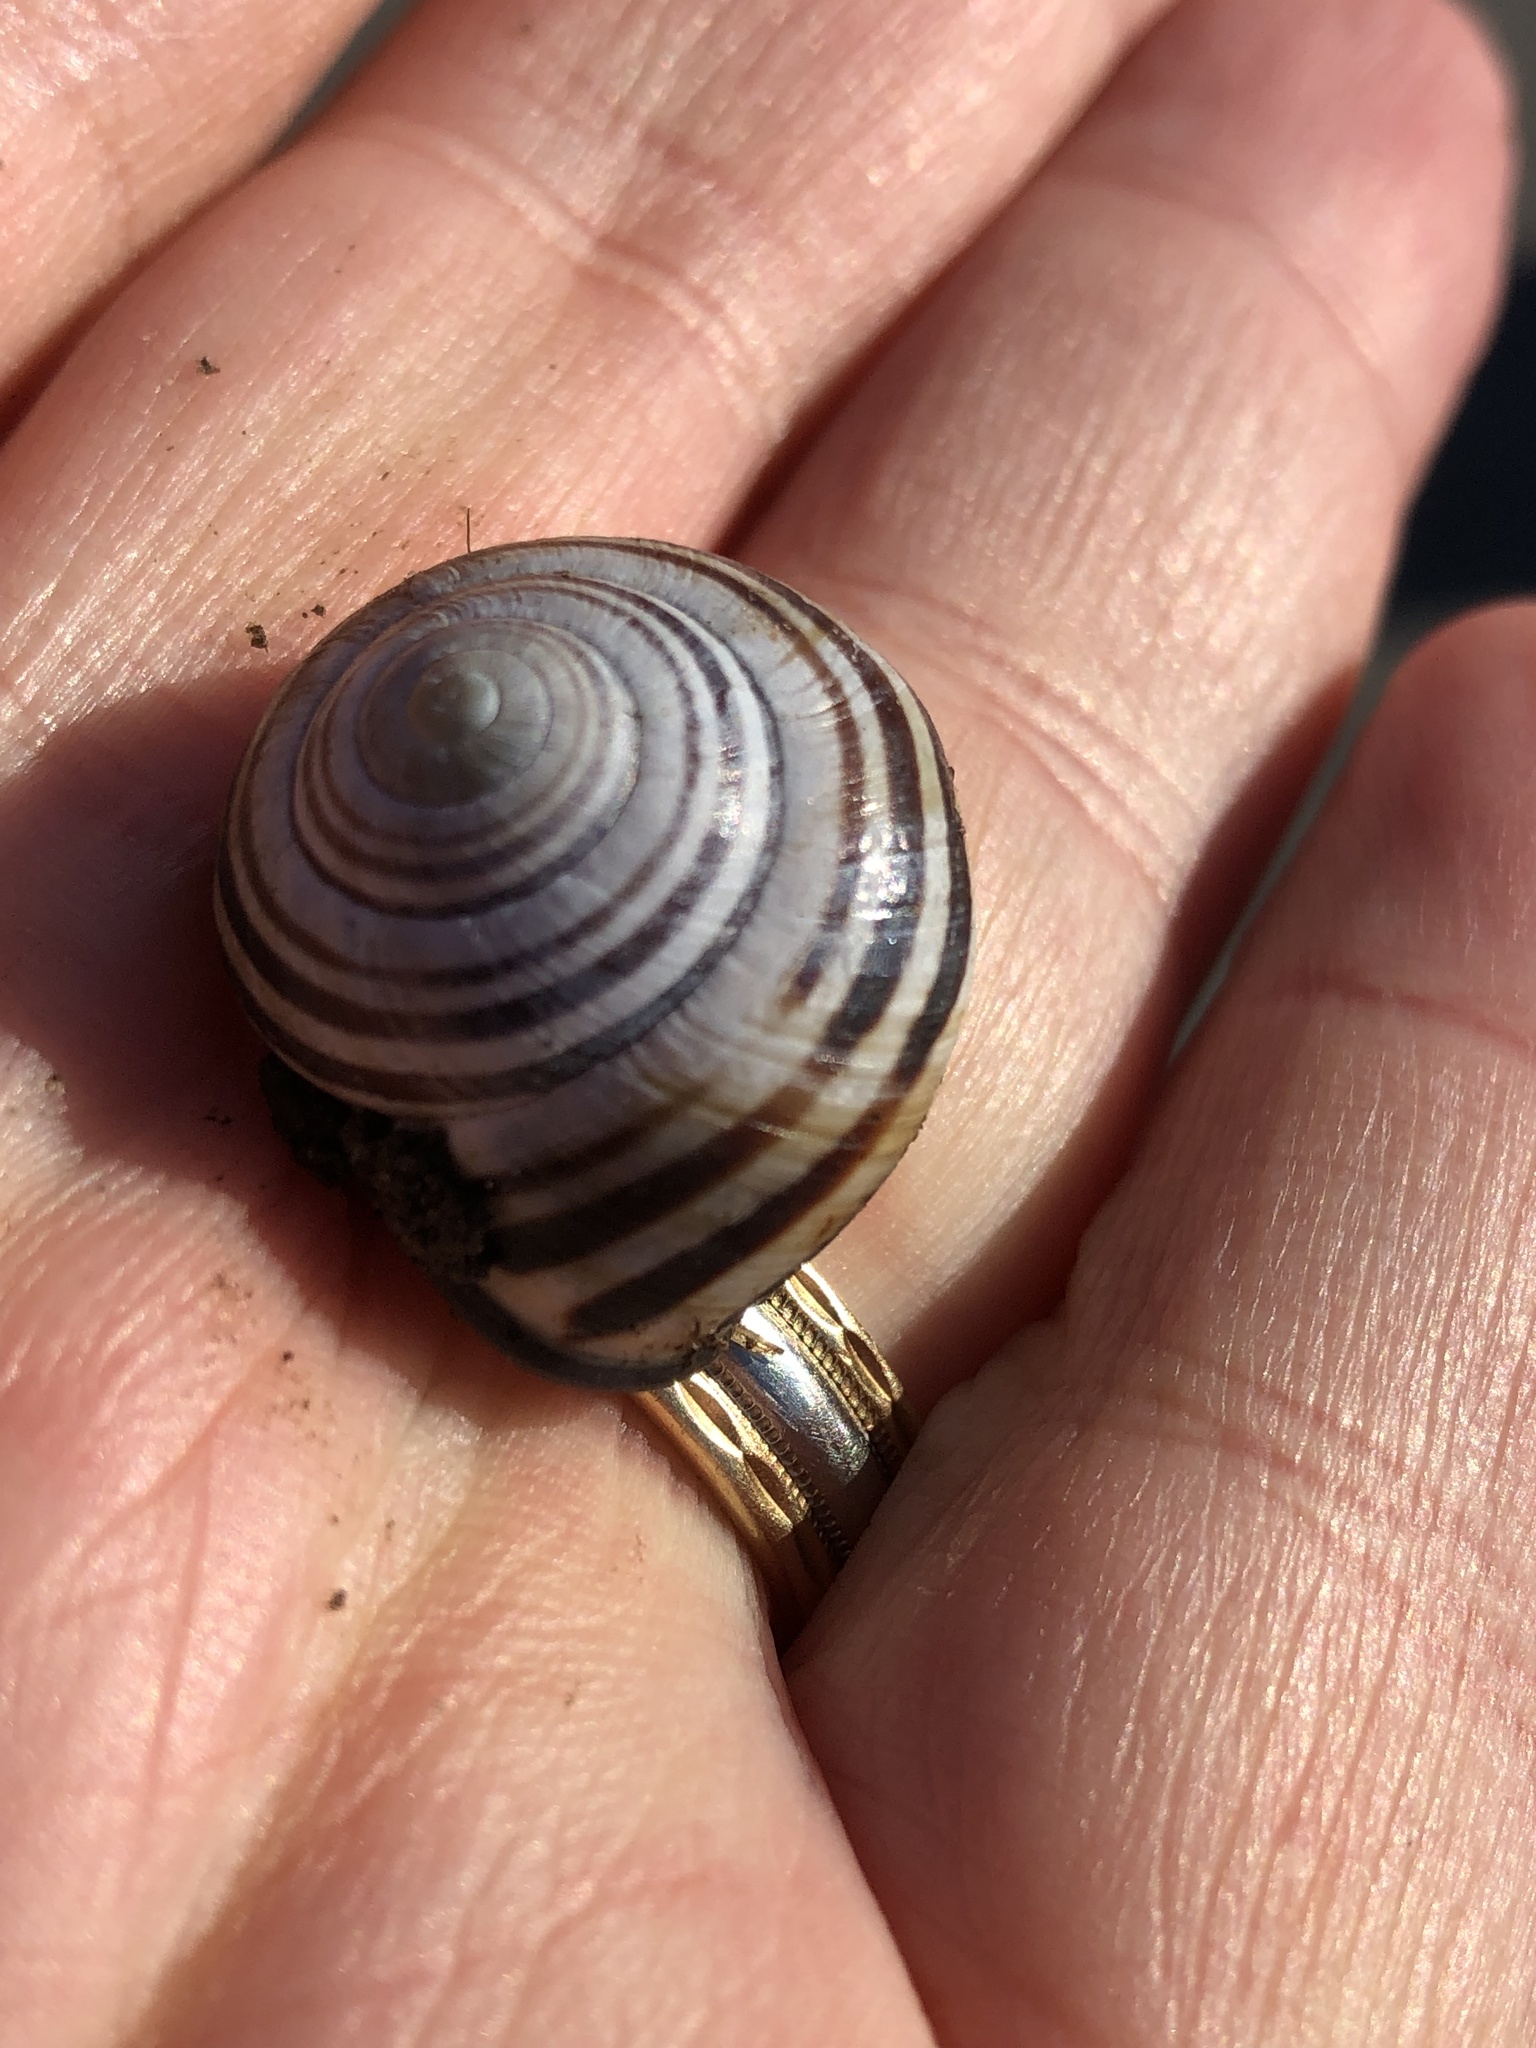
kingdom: Animalia
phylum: Mollusca
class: Gastropoda
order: Stylommatophora
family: Helicidae
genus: Cepaea
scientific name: Cepaea nemoralis
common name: Grovesnail
